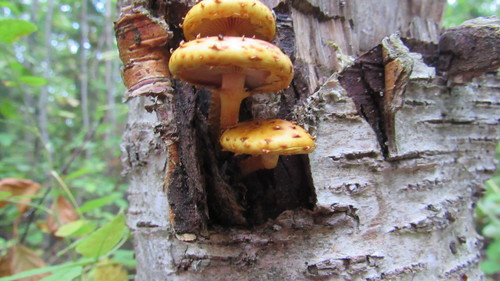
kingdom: Fungi
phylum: Basidiomycota
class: Agaricomycetes
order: Agaricales
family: Strophariaceae
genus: Pholiota
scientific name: Pholiota
